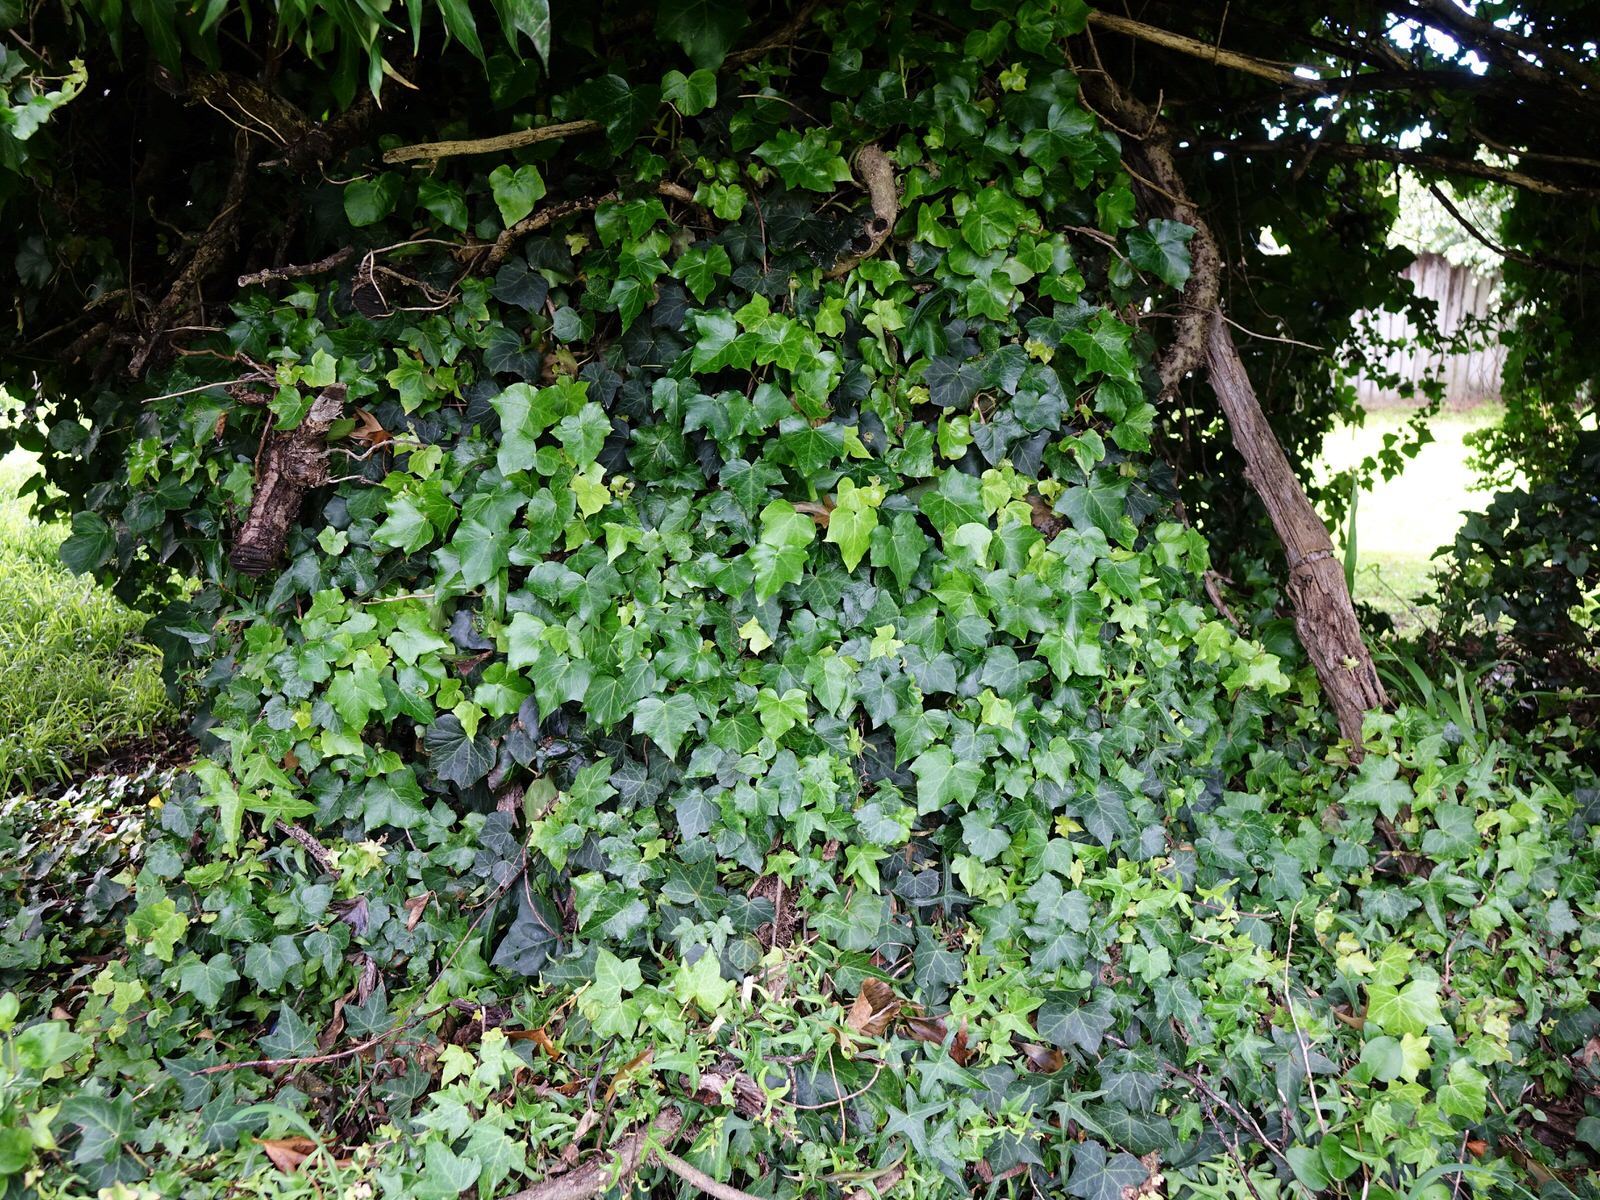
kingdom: Plantae
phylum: Tracheophyta
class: Magnoliopsida
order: Apiales
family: Araliaceae
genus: Hedera
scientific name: Hedera helix
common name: Ivy
